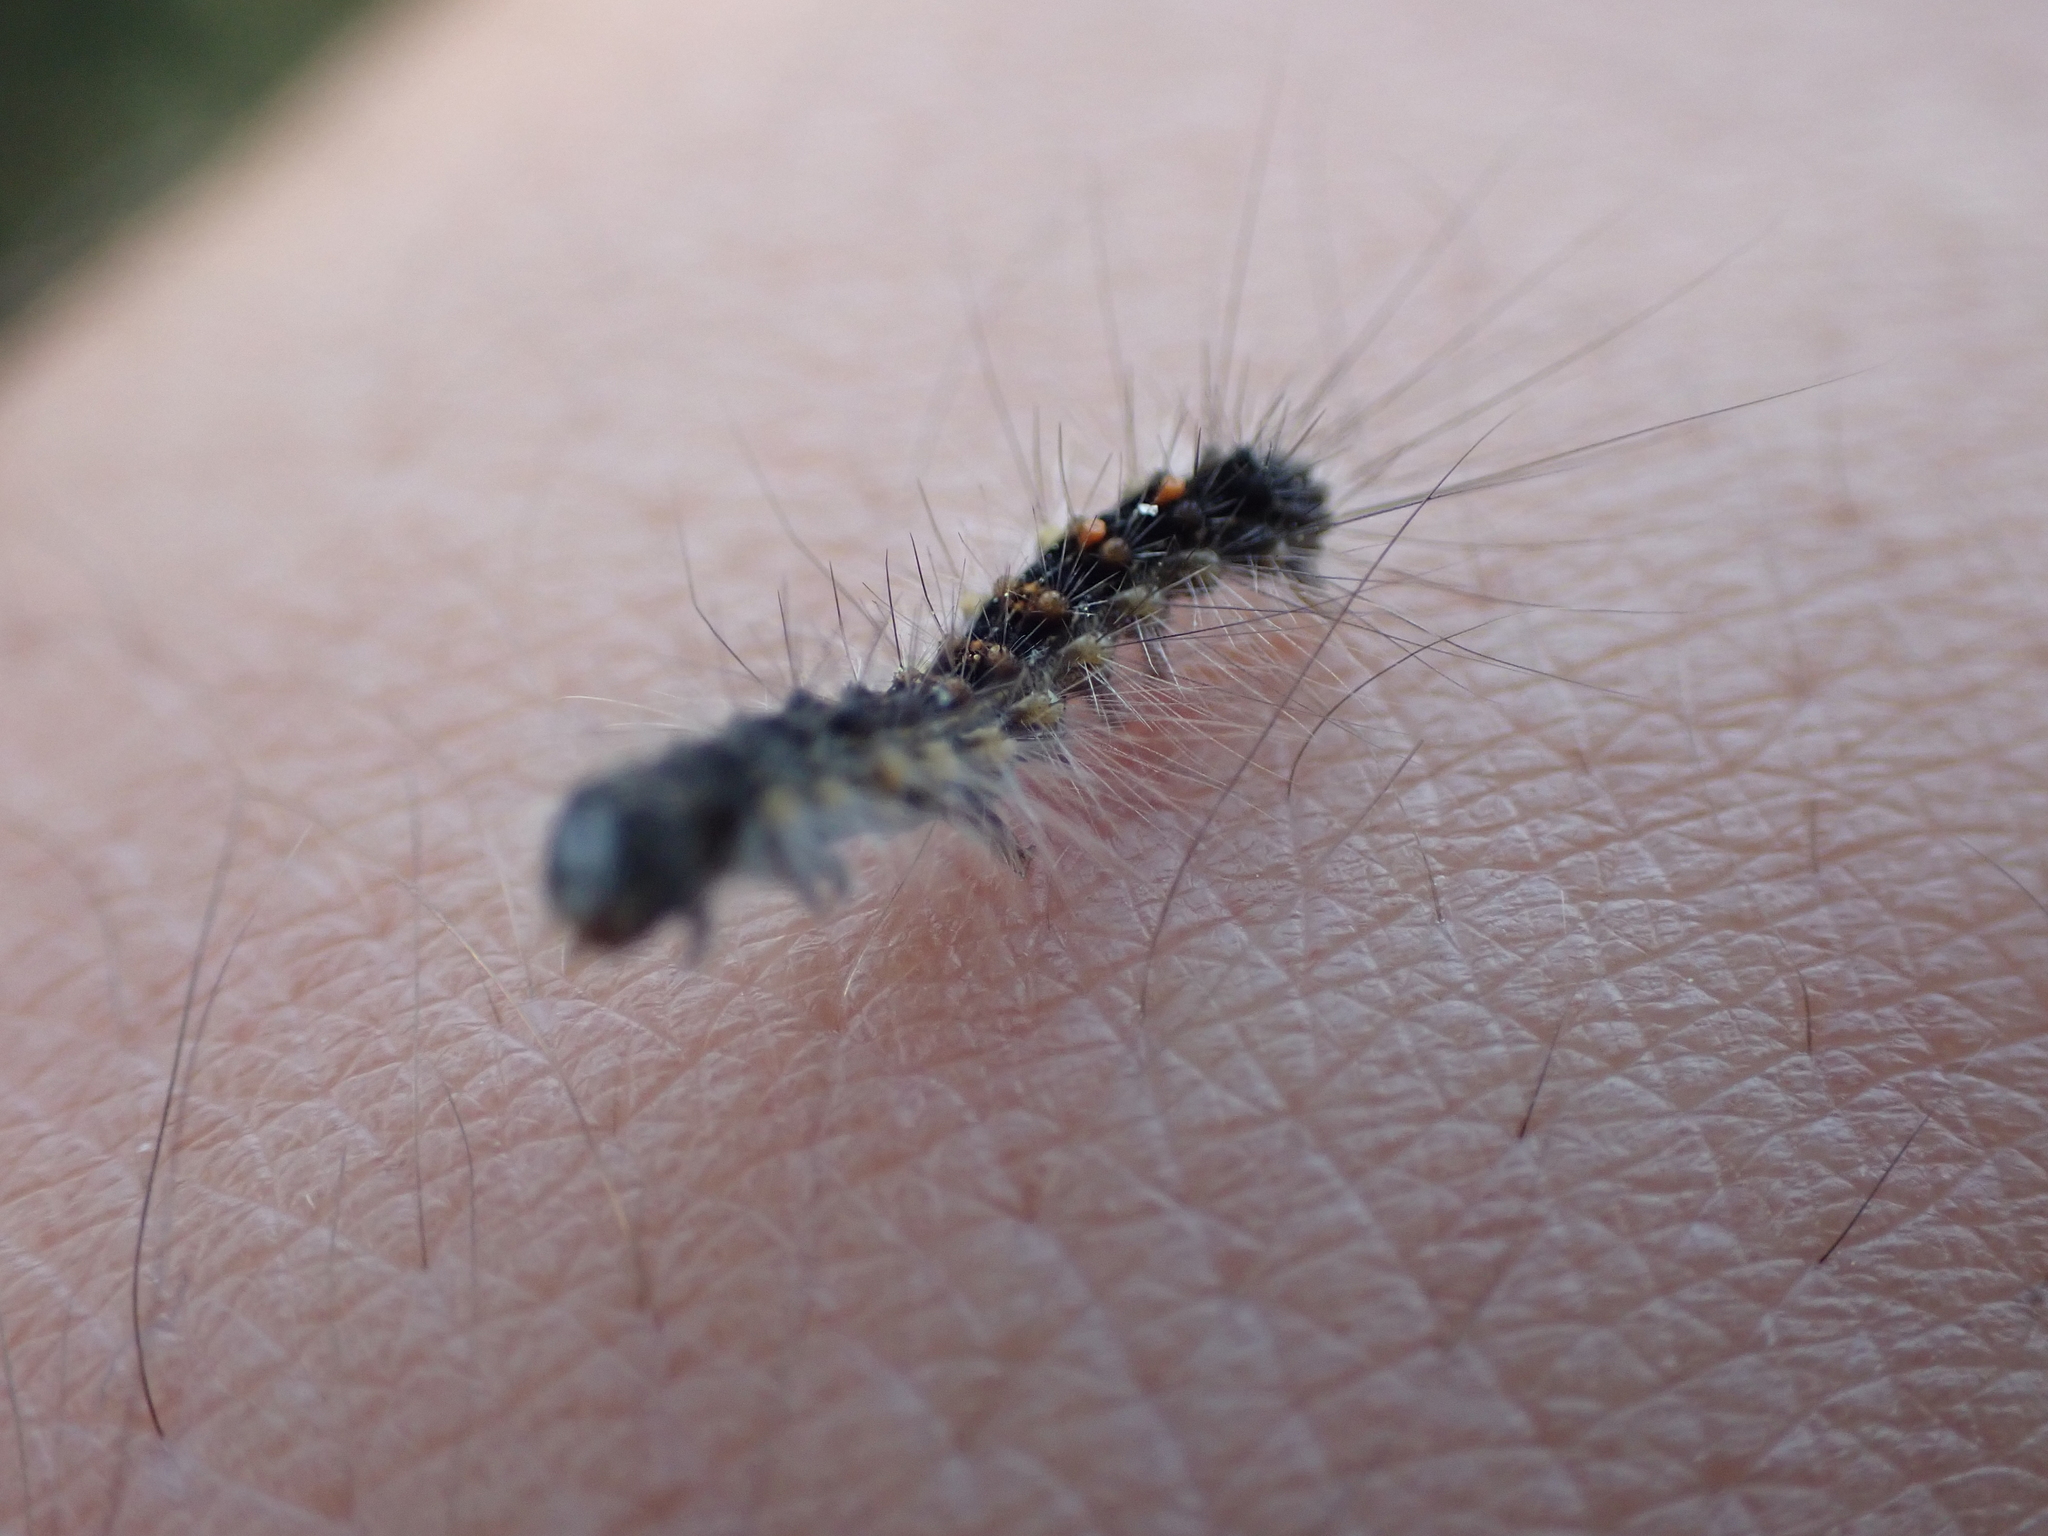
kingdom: Animalia
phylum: Arthropoda
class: Insecta
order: Lepidoptera
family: Erebidae
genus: Lymantria
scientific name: Lymantria dispar
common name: Gypsy moth
